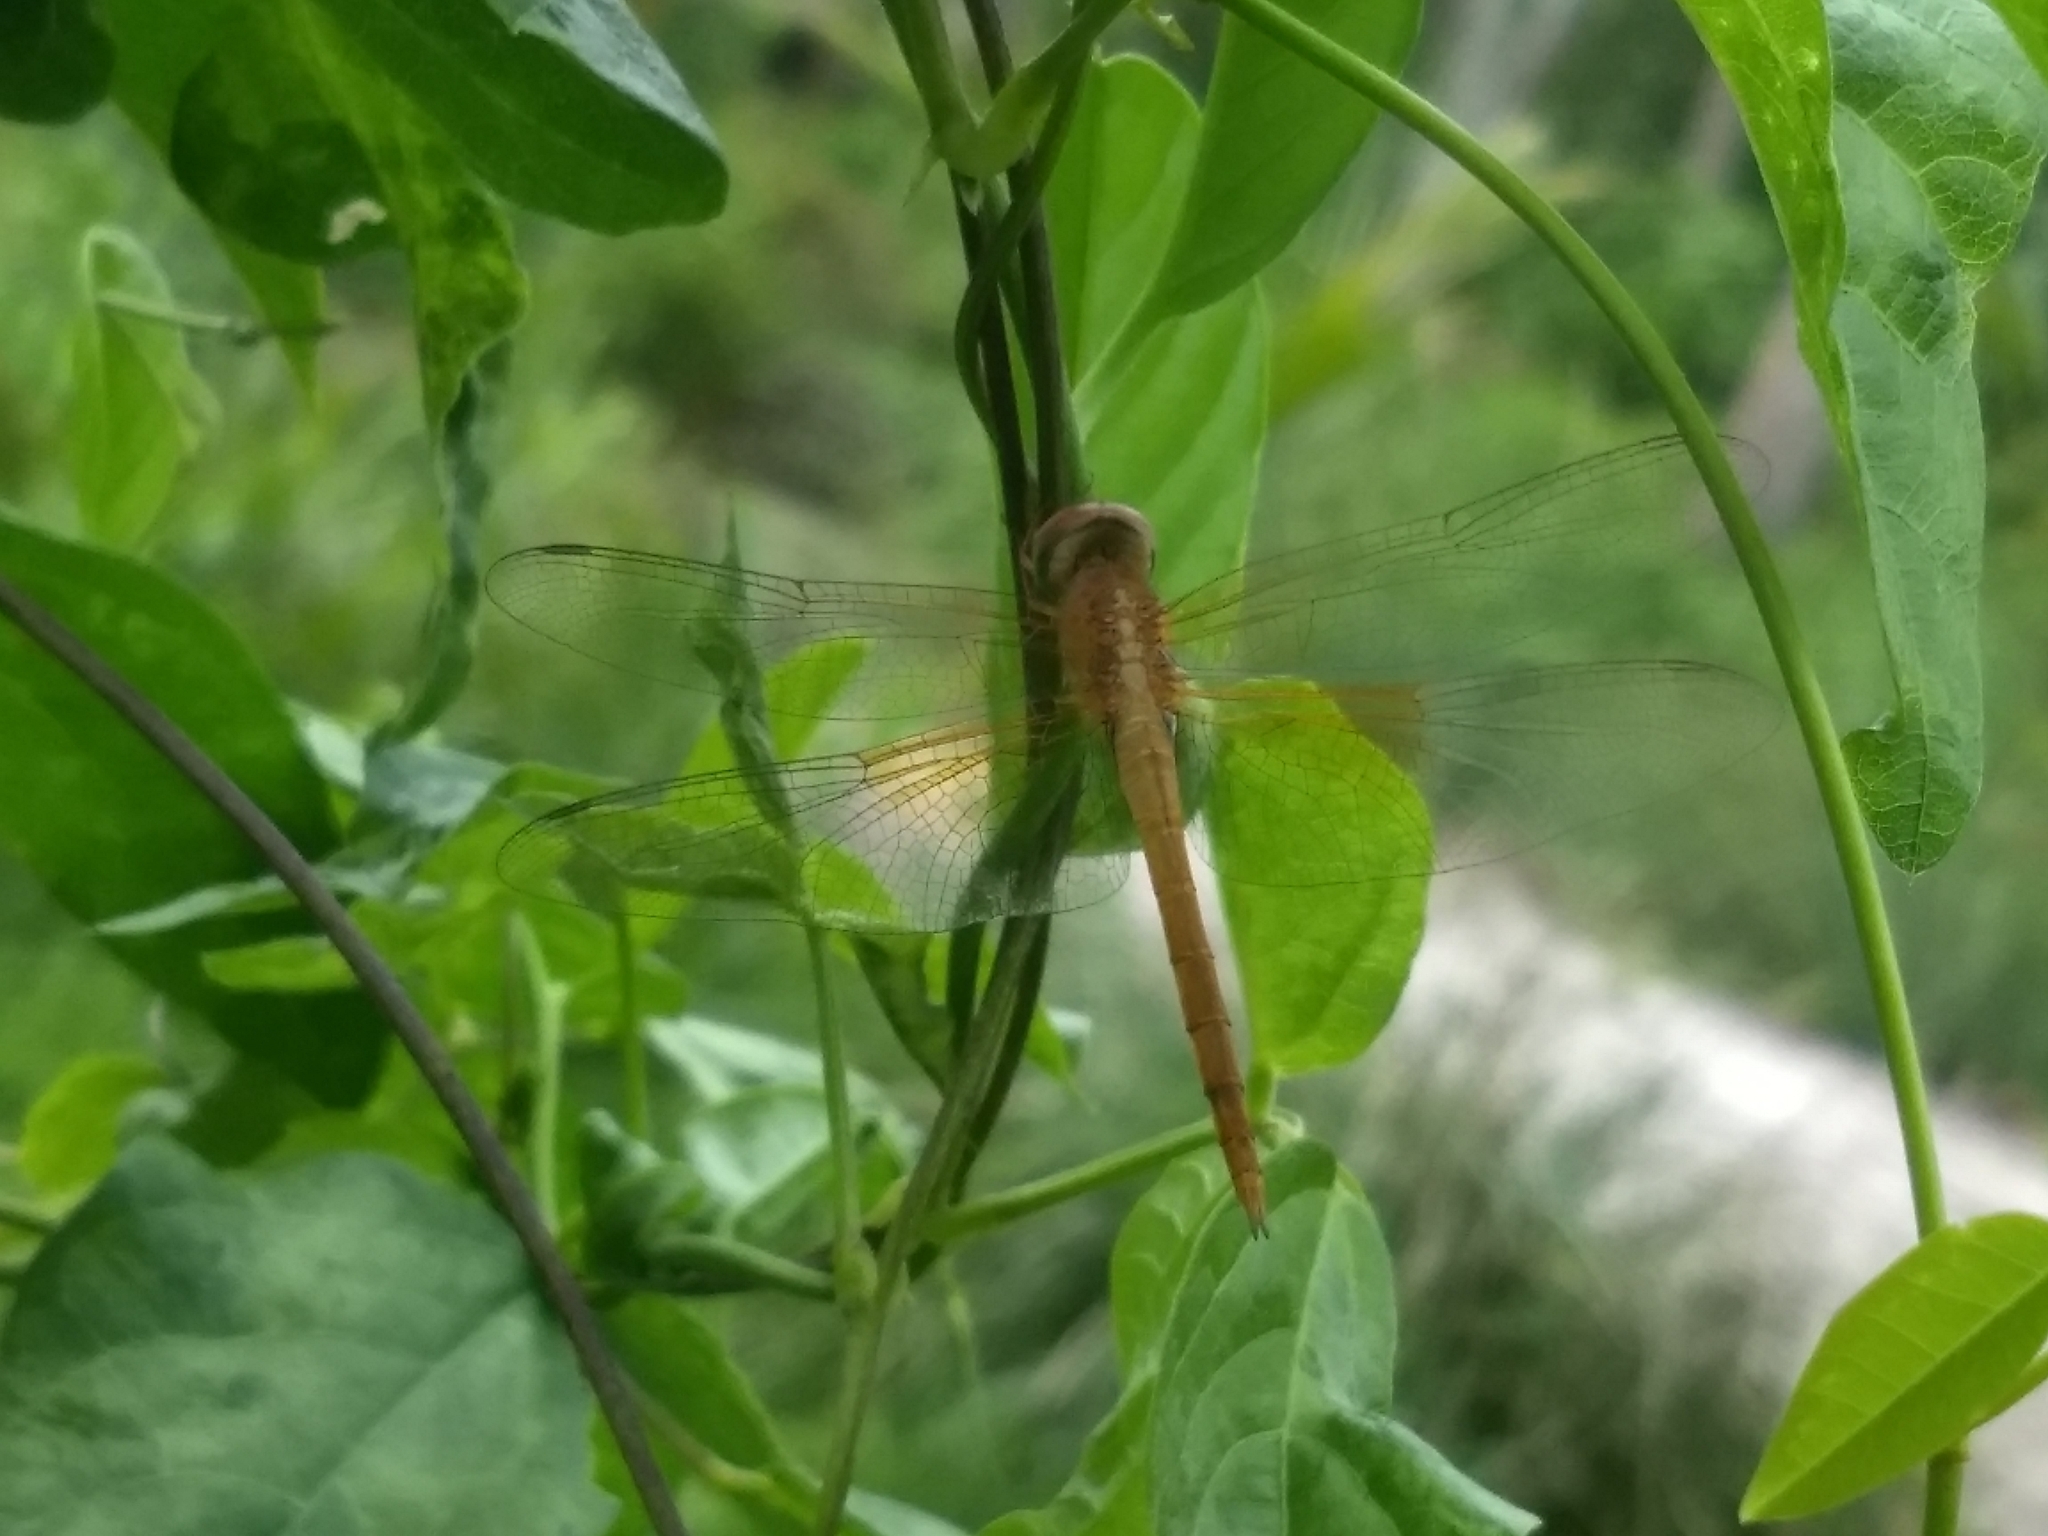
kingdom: Animalia
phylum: Arthropoda
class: Insecta
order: Odonata
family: Libellulidae
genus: Tholymis
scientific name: Tholymis tillarga
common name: Coral-tailed cloud wing
